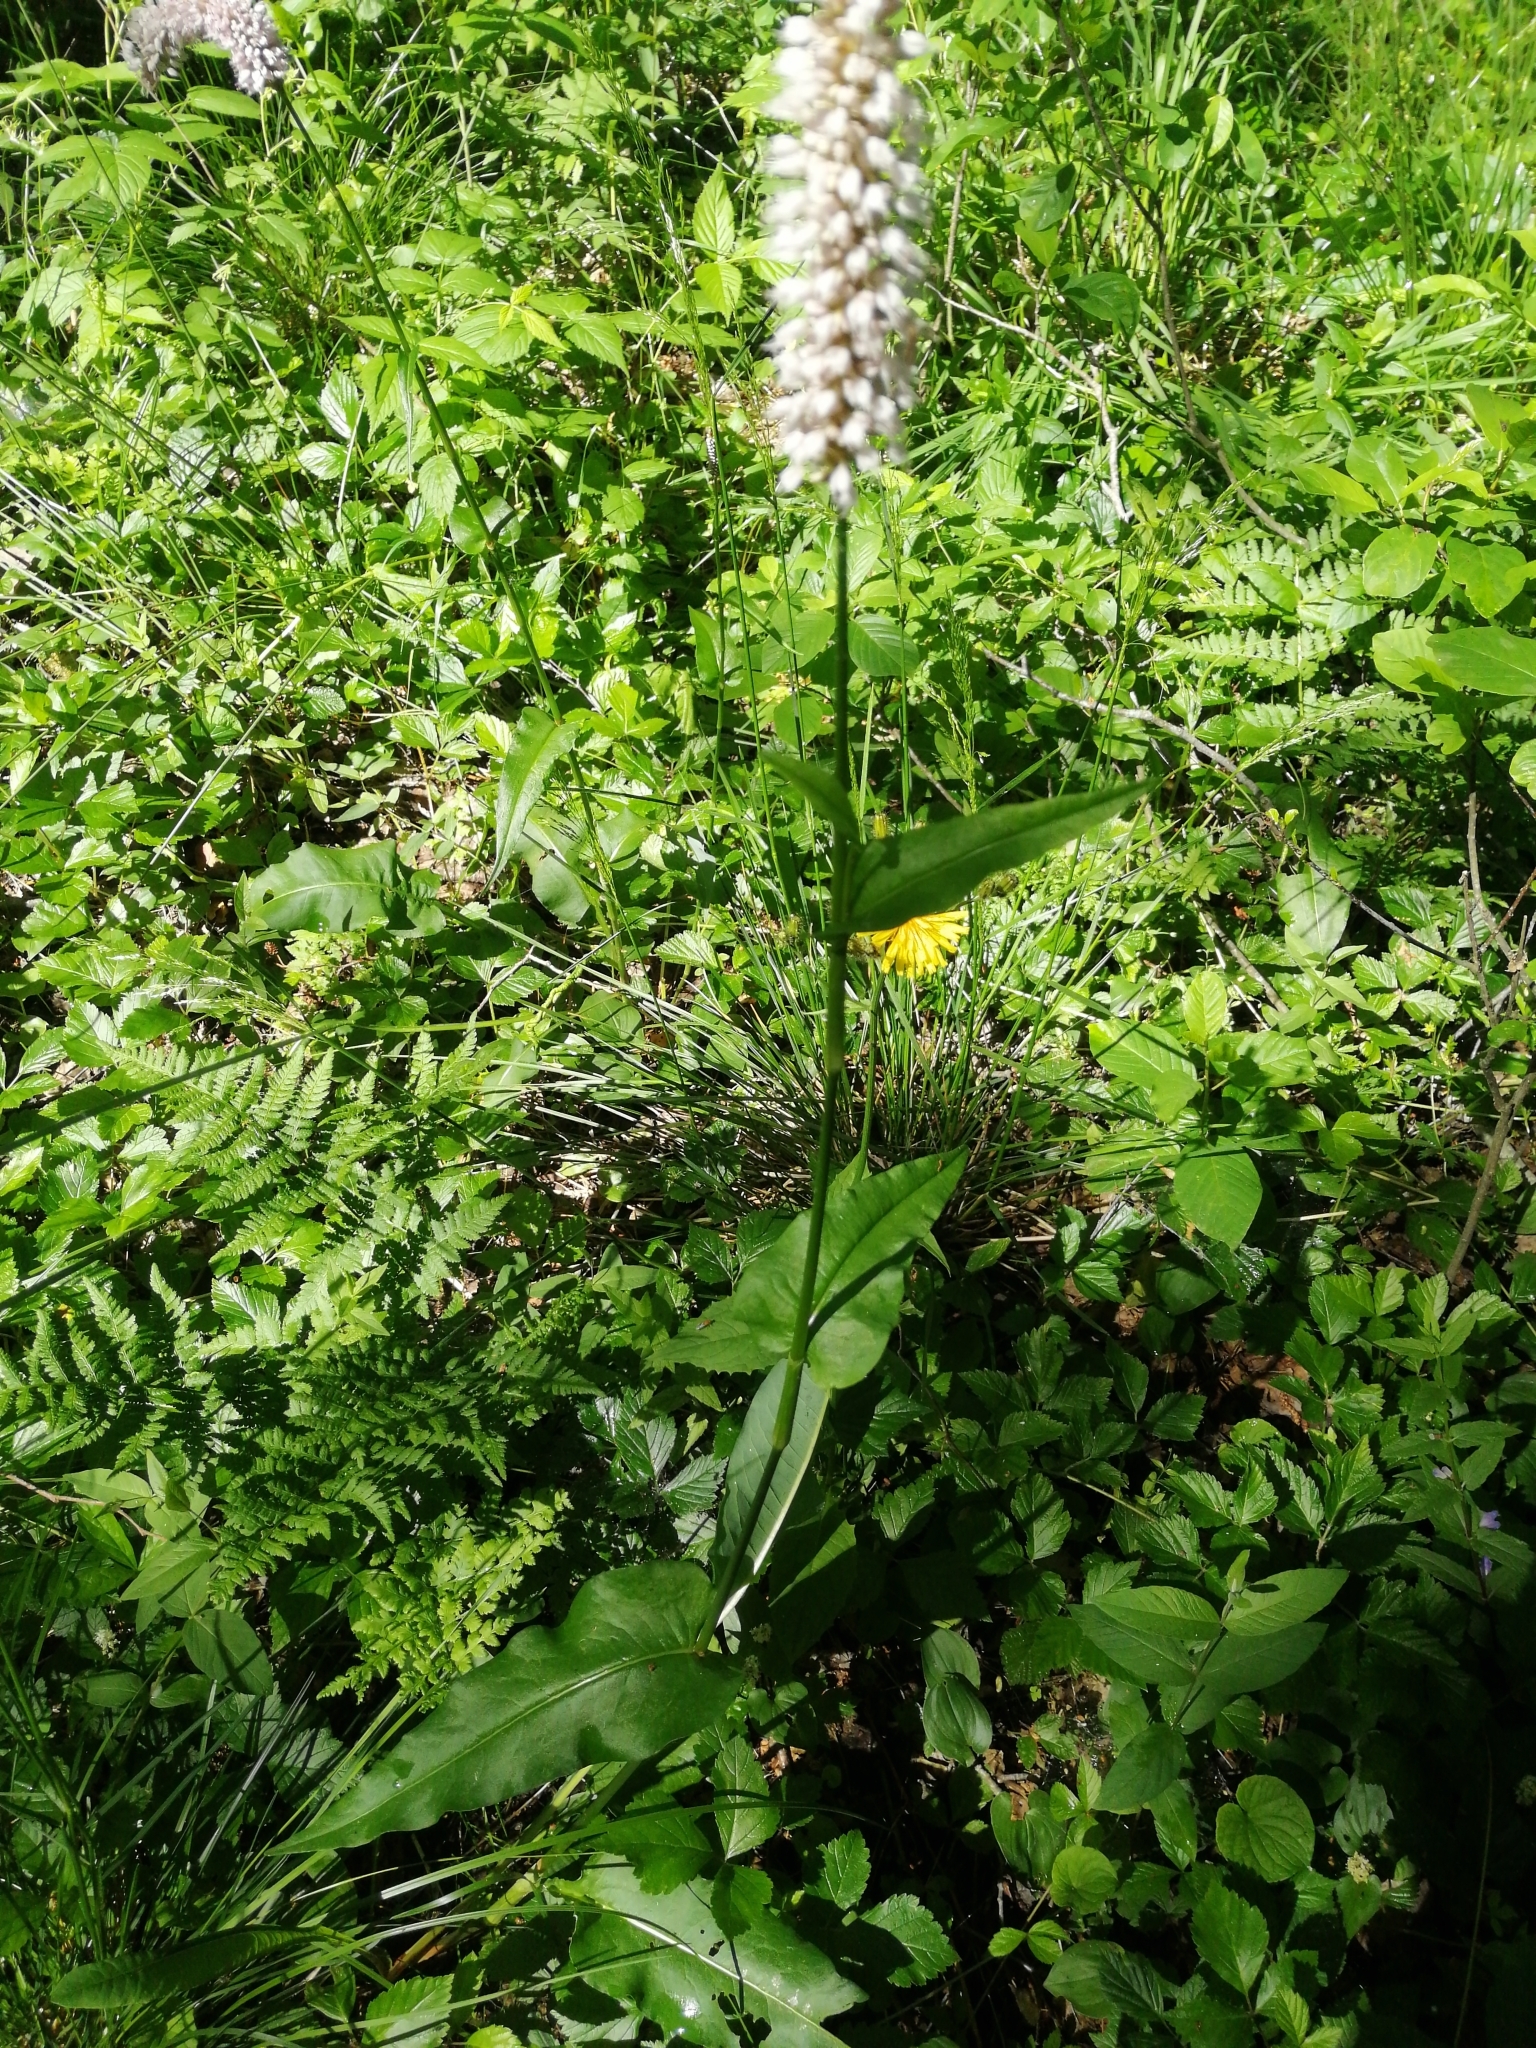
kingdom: Plantae
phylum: Tracheophyta
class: Magnoliopsida
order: Caryophyllales
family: Polygonaceae
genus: Bistorta
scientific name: Bistorta officinalis
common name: Common bistort
